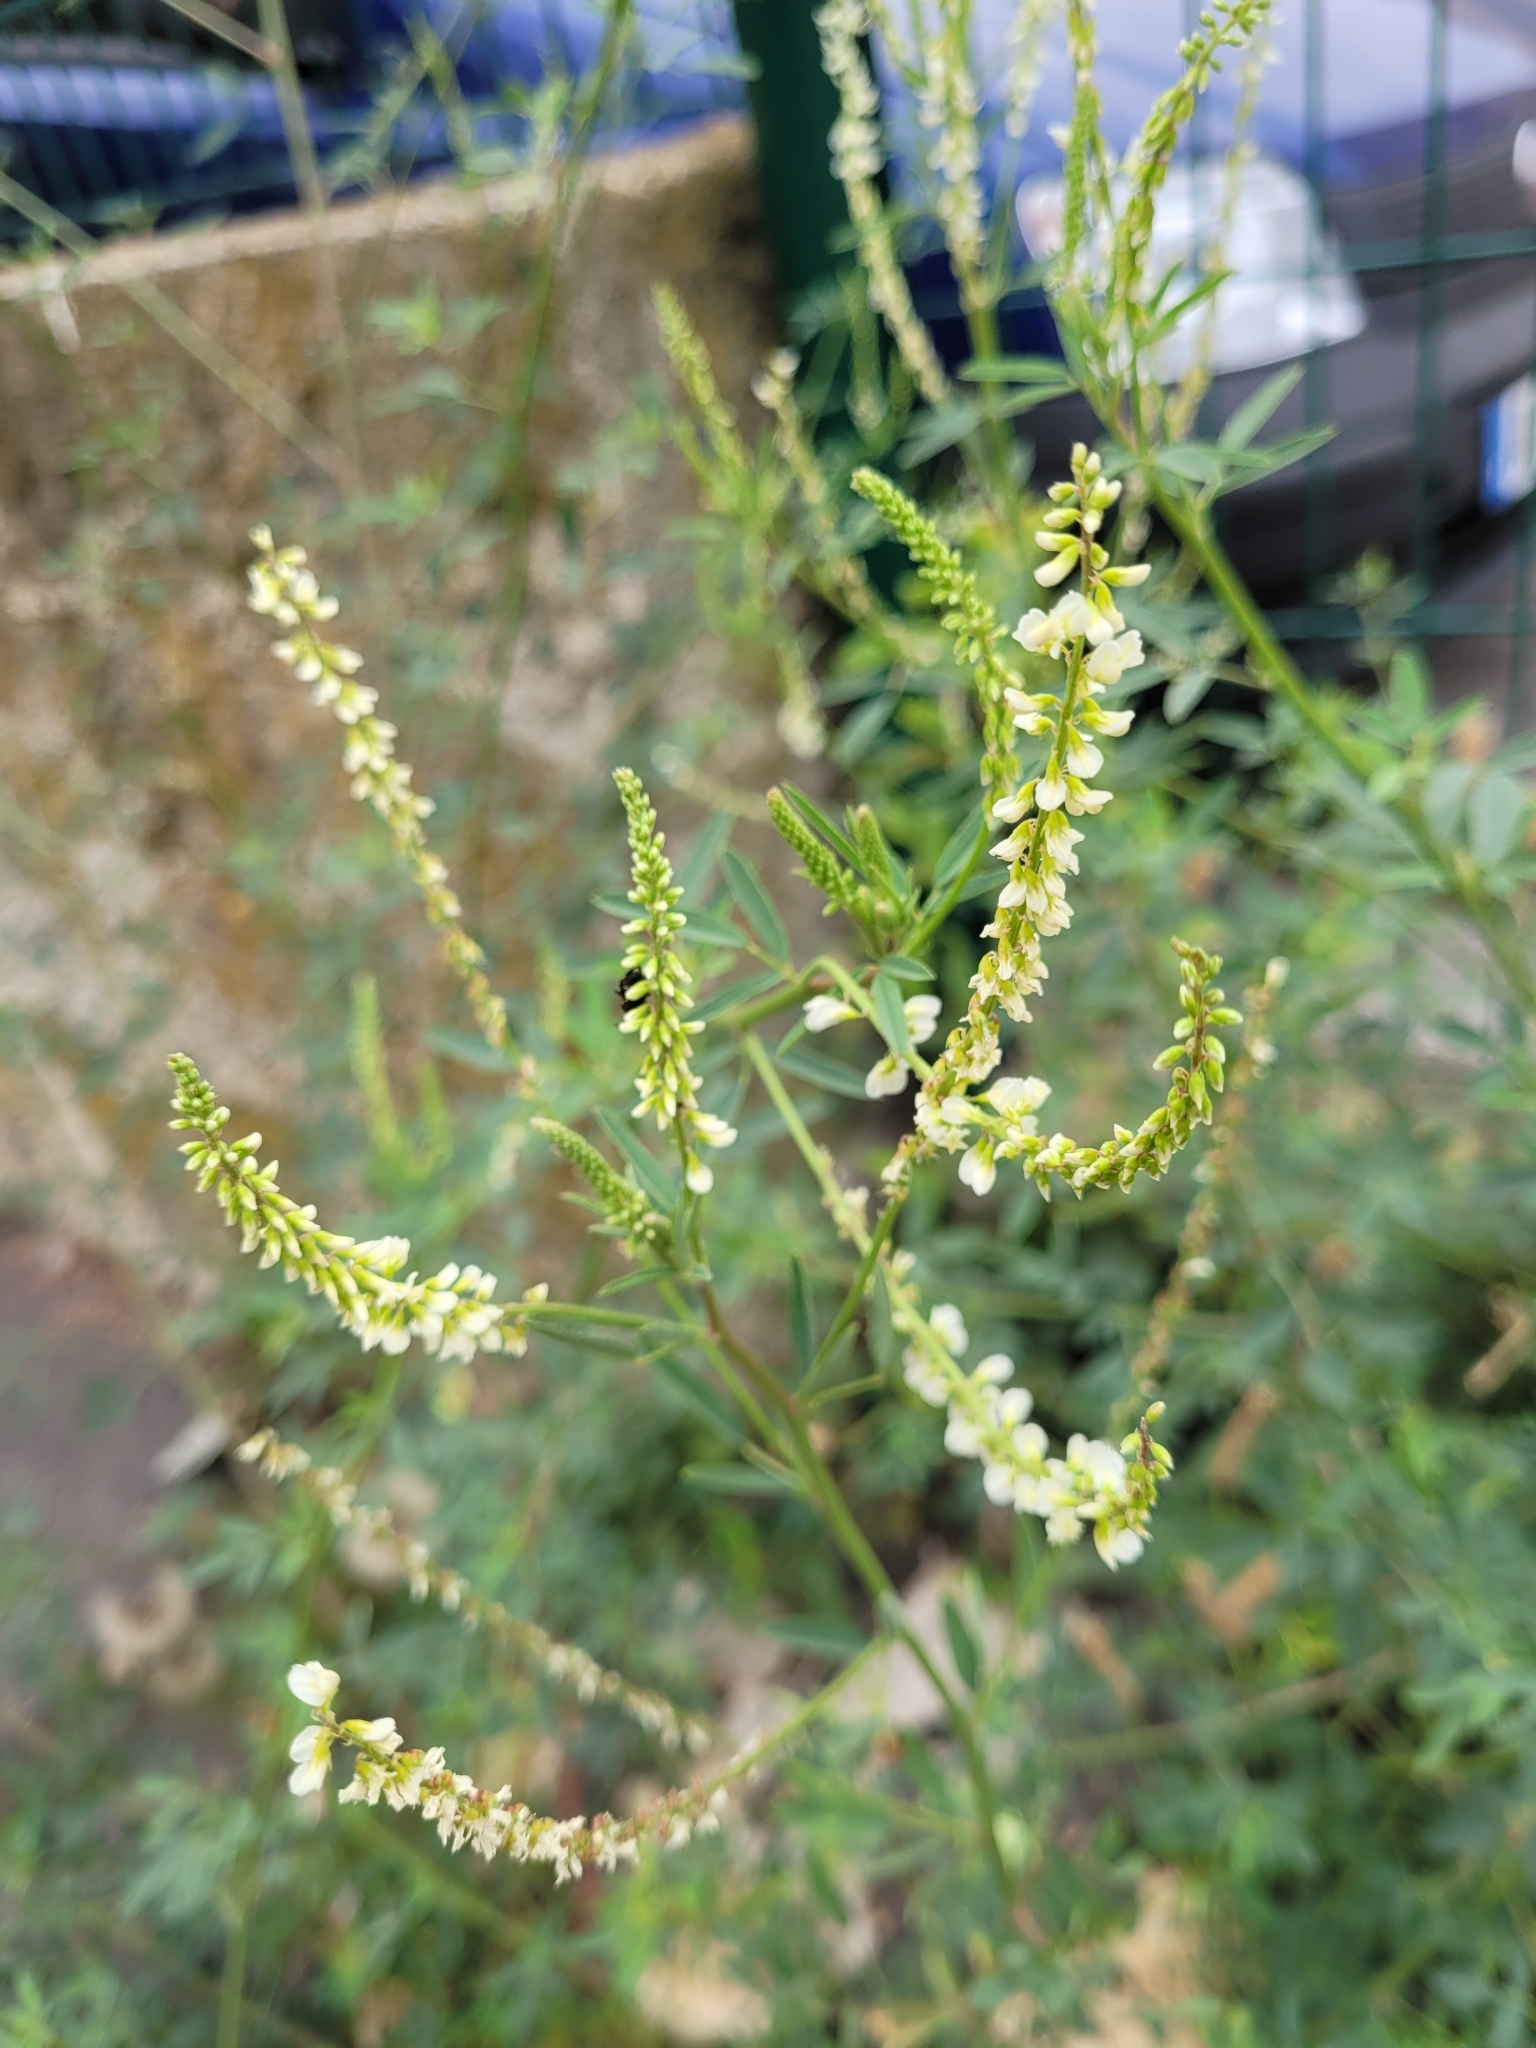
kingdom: Plantae
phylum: Tracheophyta
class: Magnoliopsida
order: Fabales
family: Fabaceae
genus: Melilotus
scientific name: Melilotus albus
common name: White melilot
